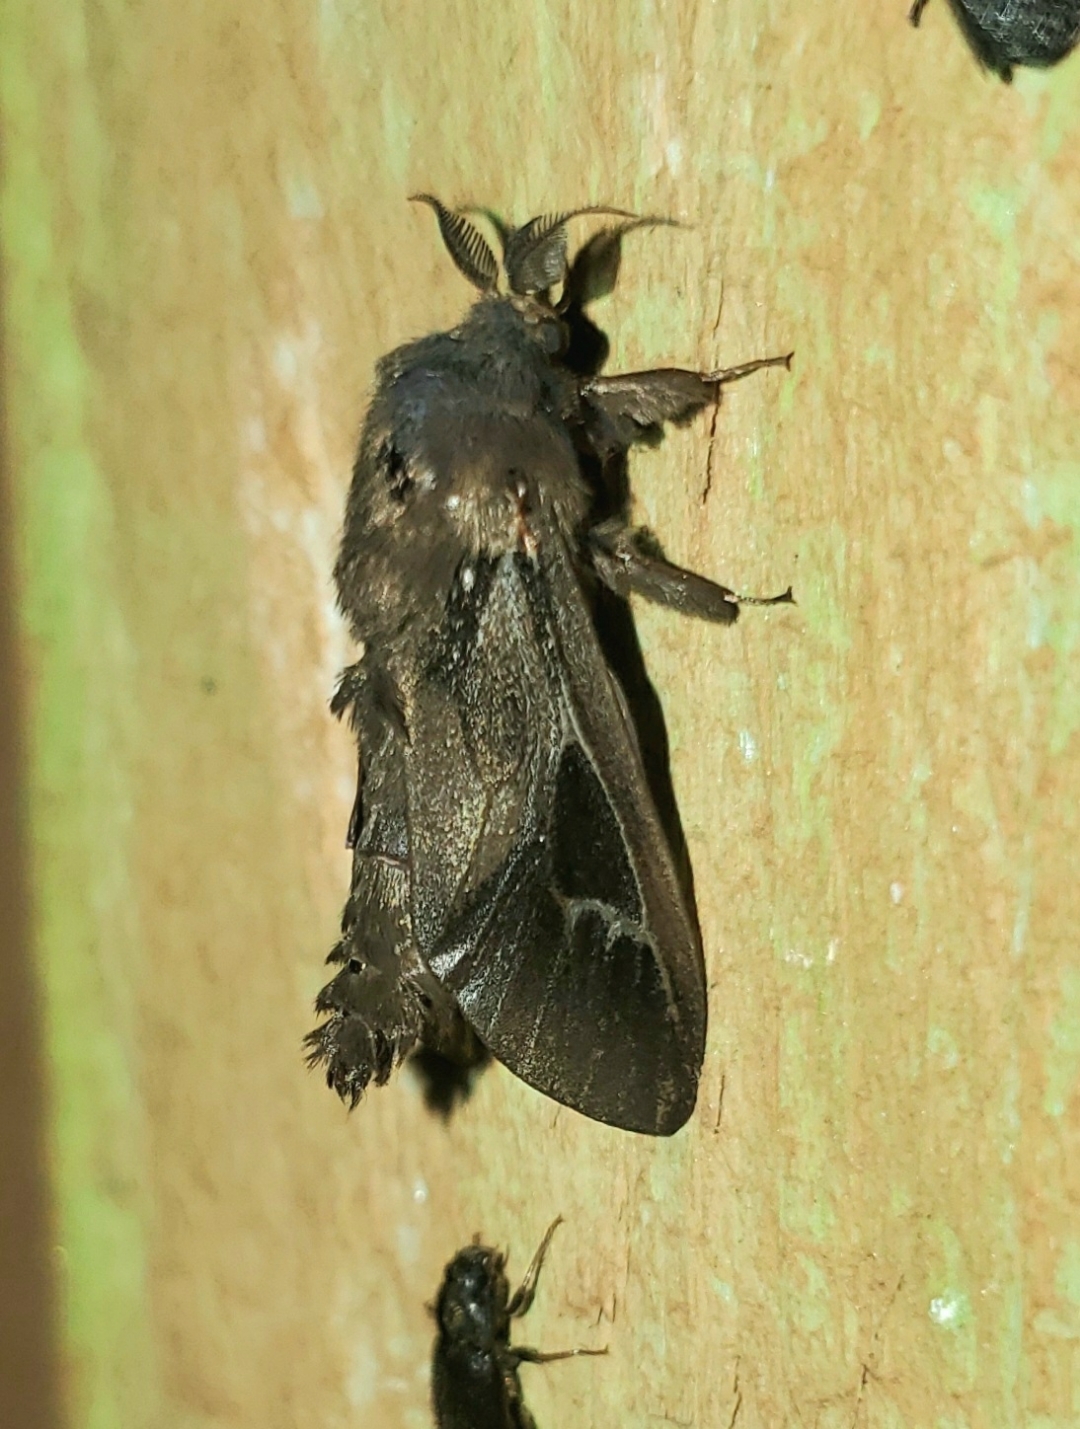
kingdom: Animalia
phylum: Arthropoda
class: Insecta
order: Lepidoptera
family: Psychidae
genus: Oiketicus
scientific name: Oiketicus
